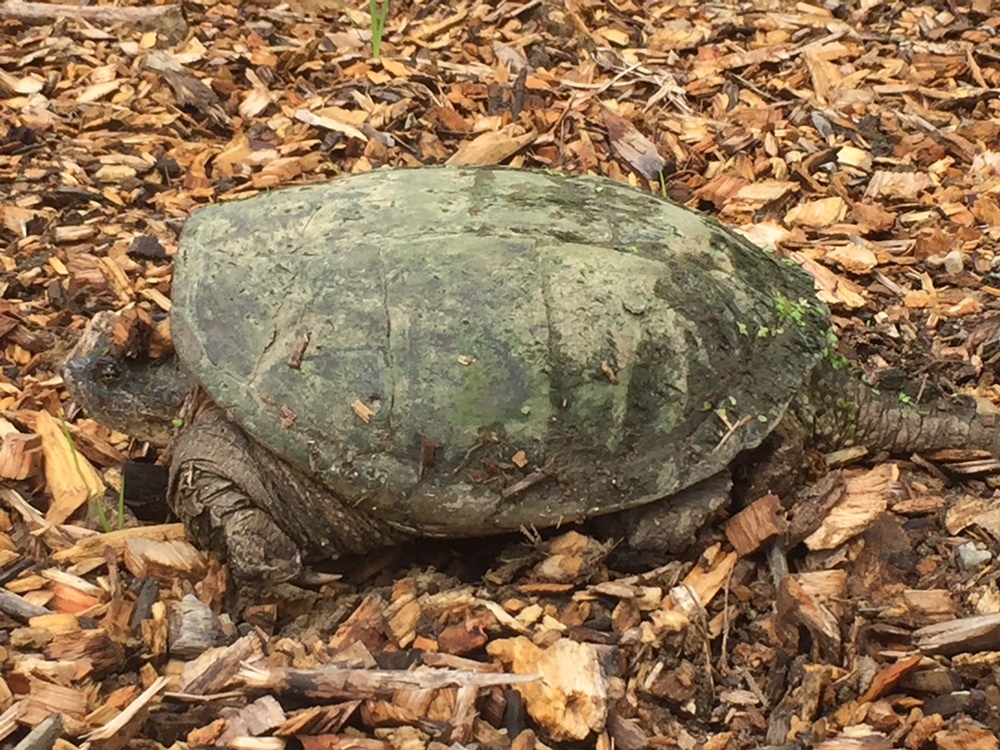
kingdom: Animalia
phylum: Chordata
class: Testudines
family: Chelydridae
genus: Chelydra
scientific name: Chelydra serpentina
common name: Common snapping turtle
